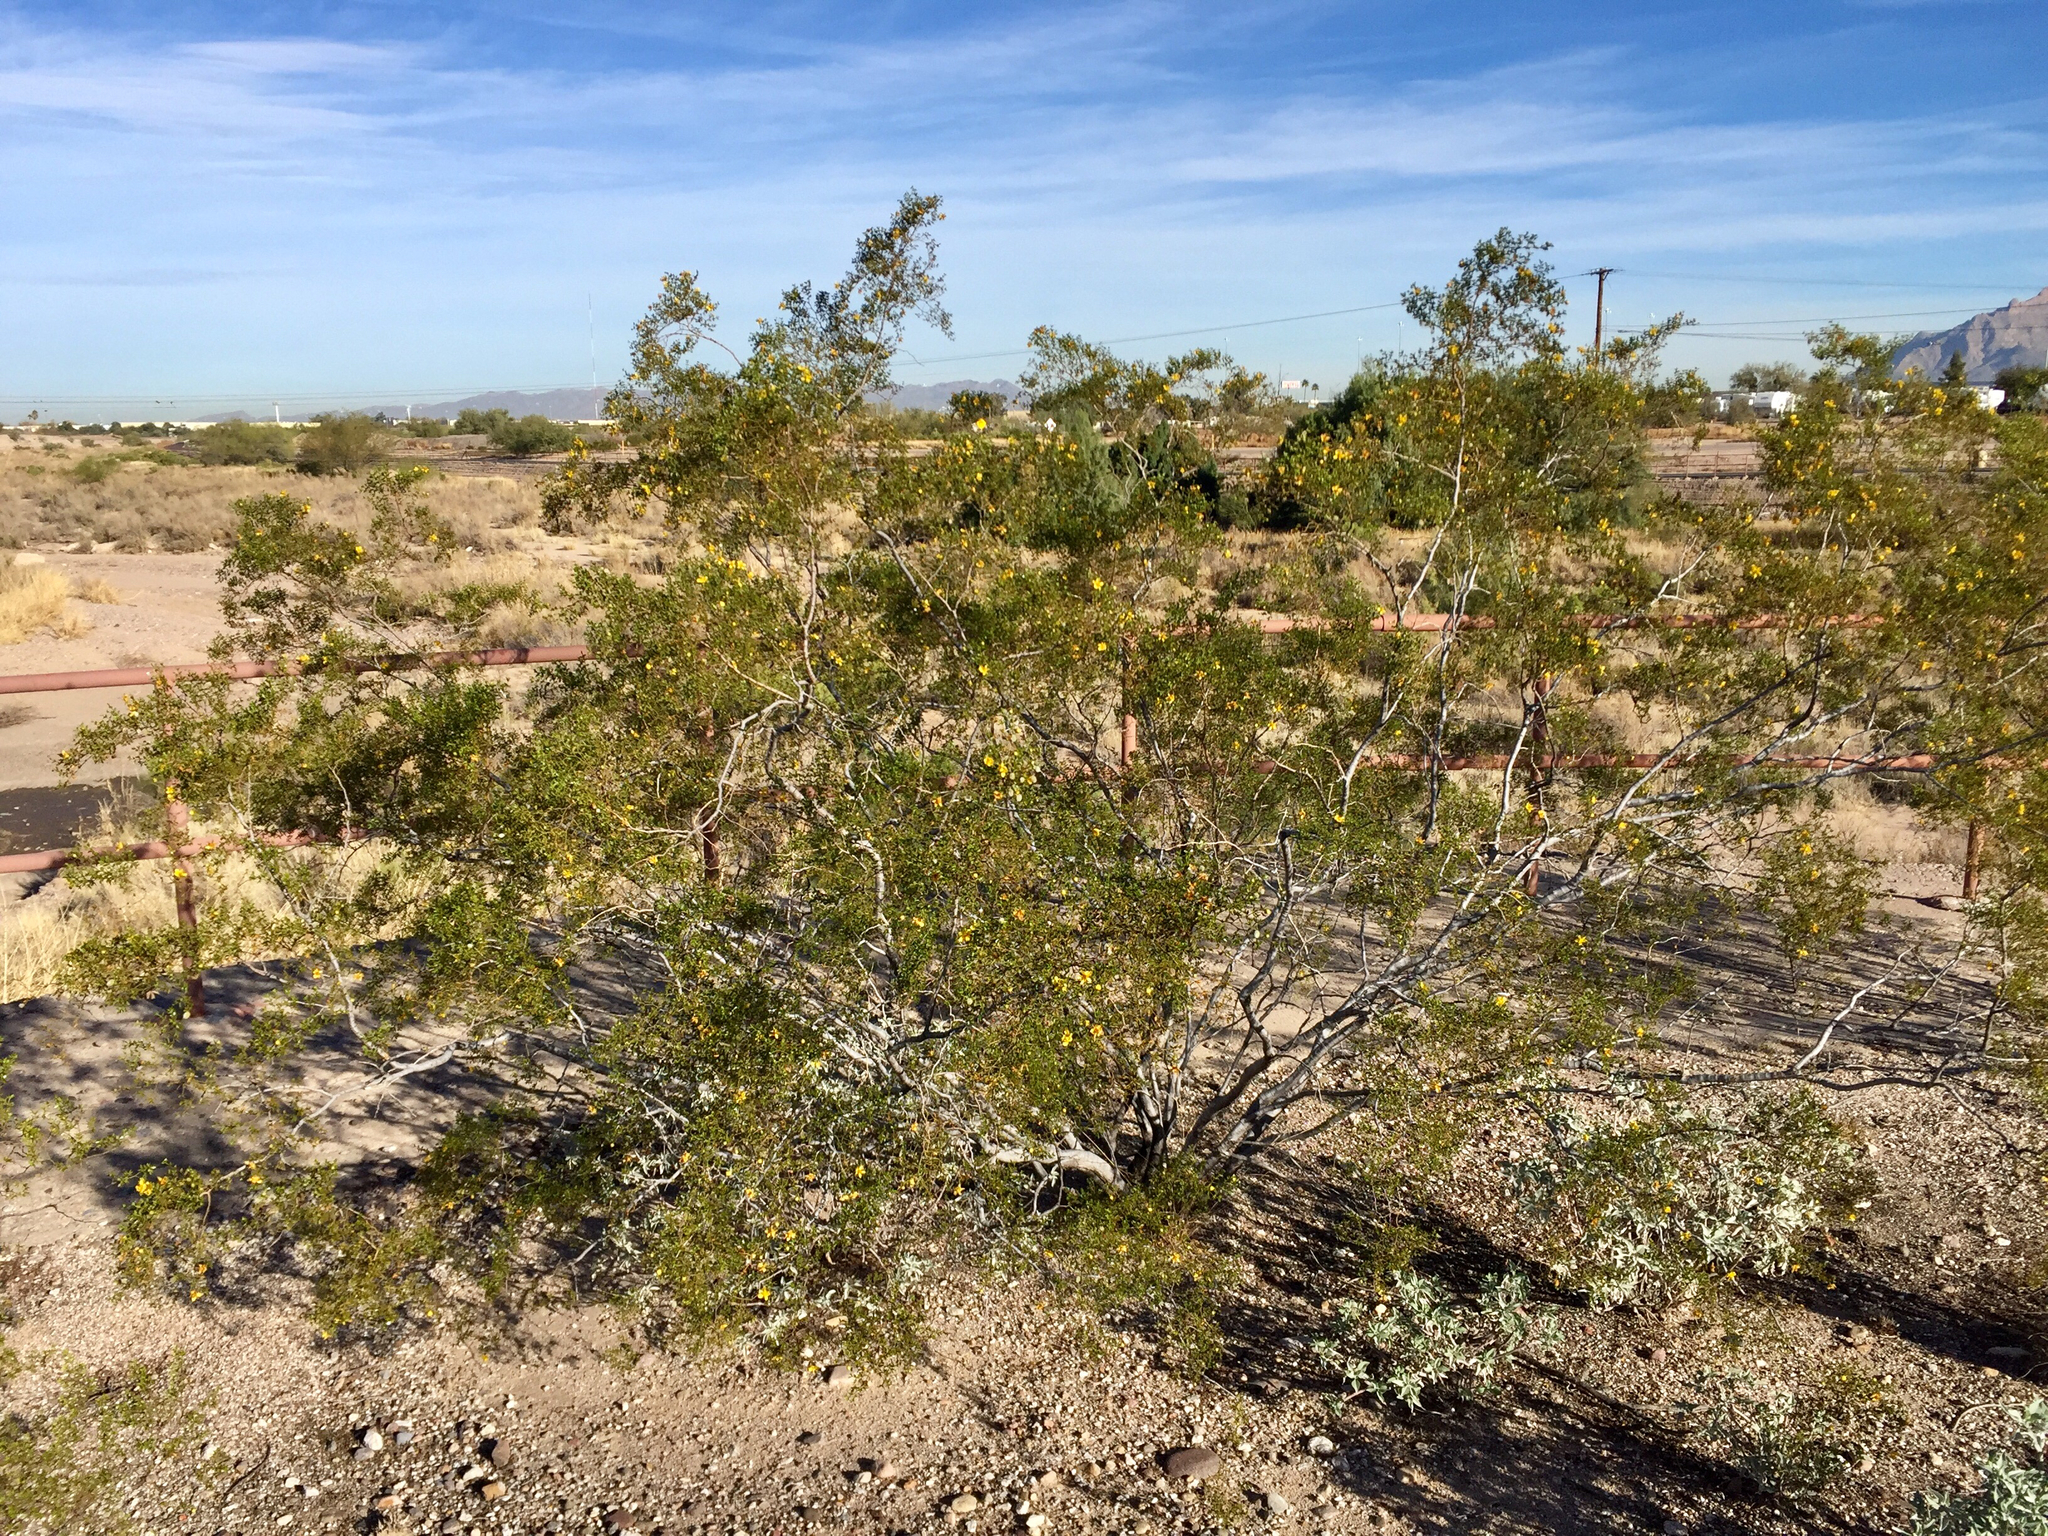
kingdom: Plantae
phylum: Tracheophyta
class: Magnoliopsida
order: Zygophyllales
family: Zygophyllaceae
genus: Larrea
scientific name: Larrea tridentata
